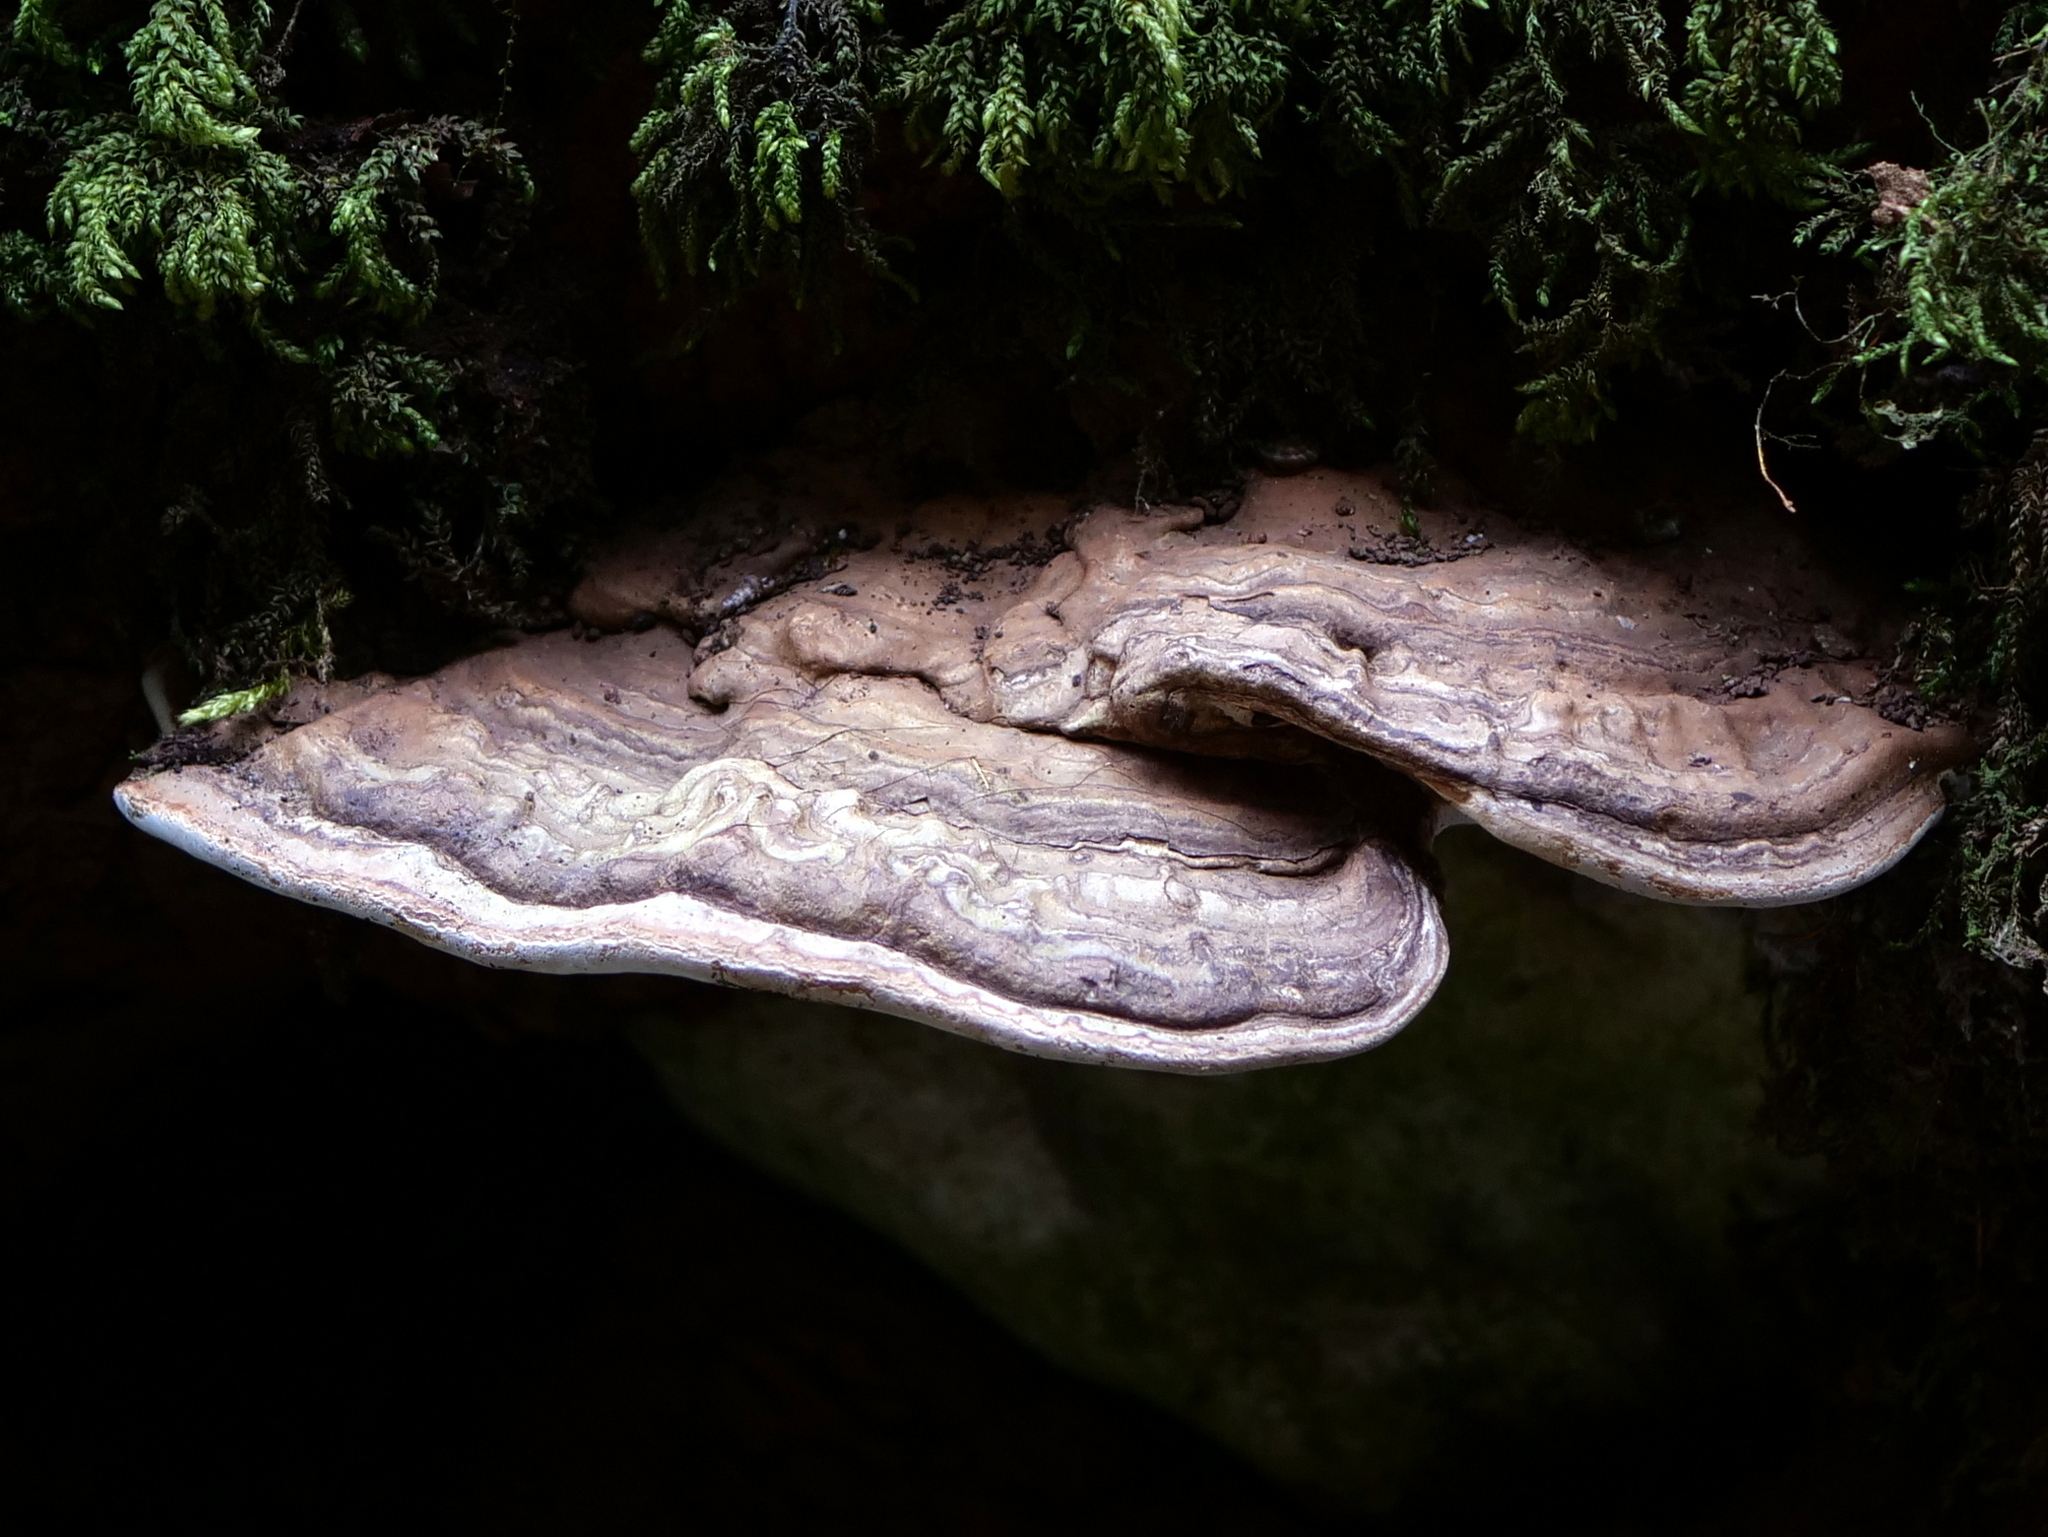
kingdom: Fungi
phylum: Basidiomycota
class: Agaricomycetes
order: Polyporales
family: Polyporaceae
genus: Ganoderma
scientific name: Ganoderma applanatum
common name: Artist's bracket
